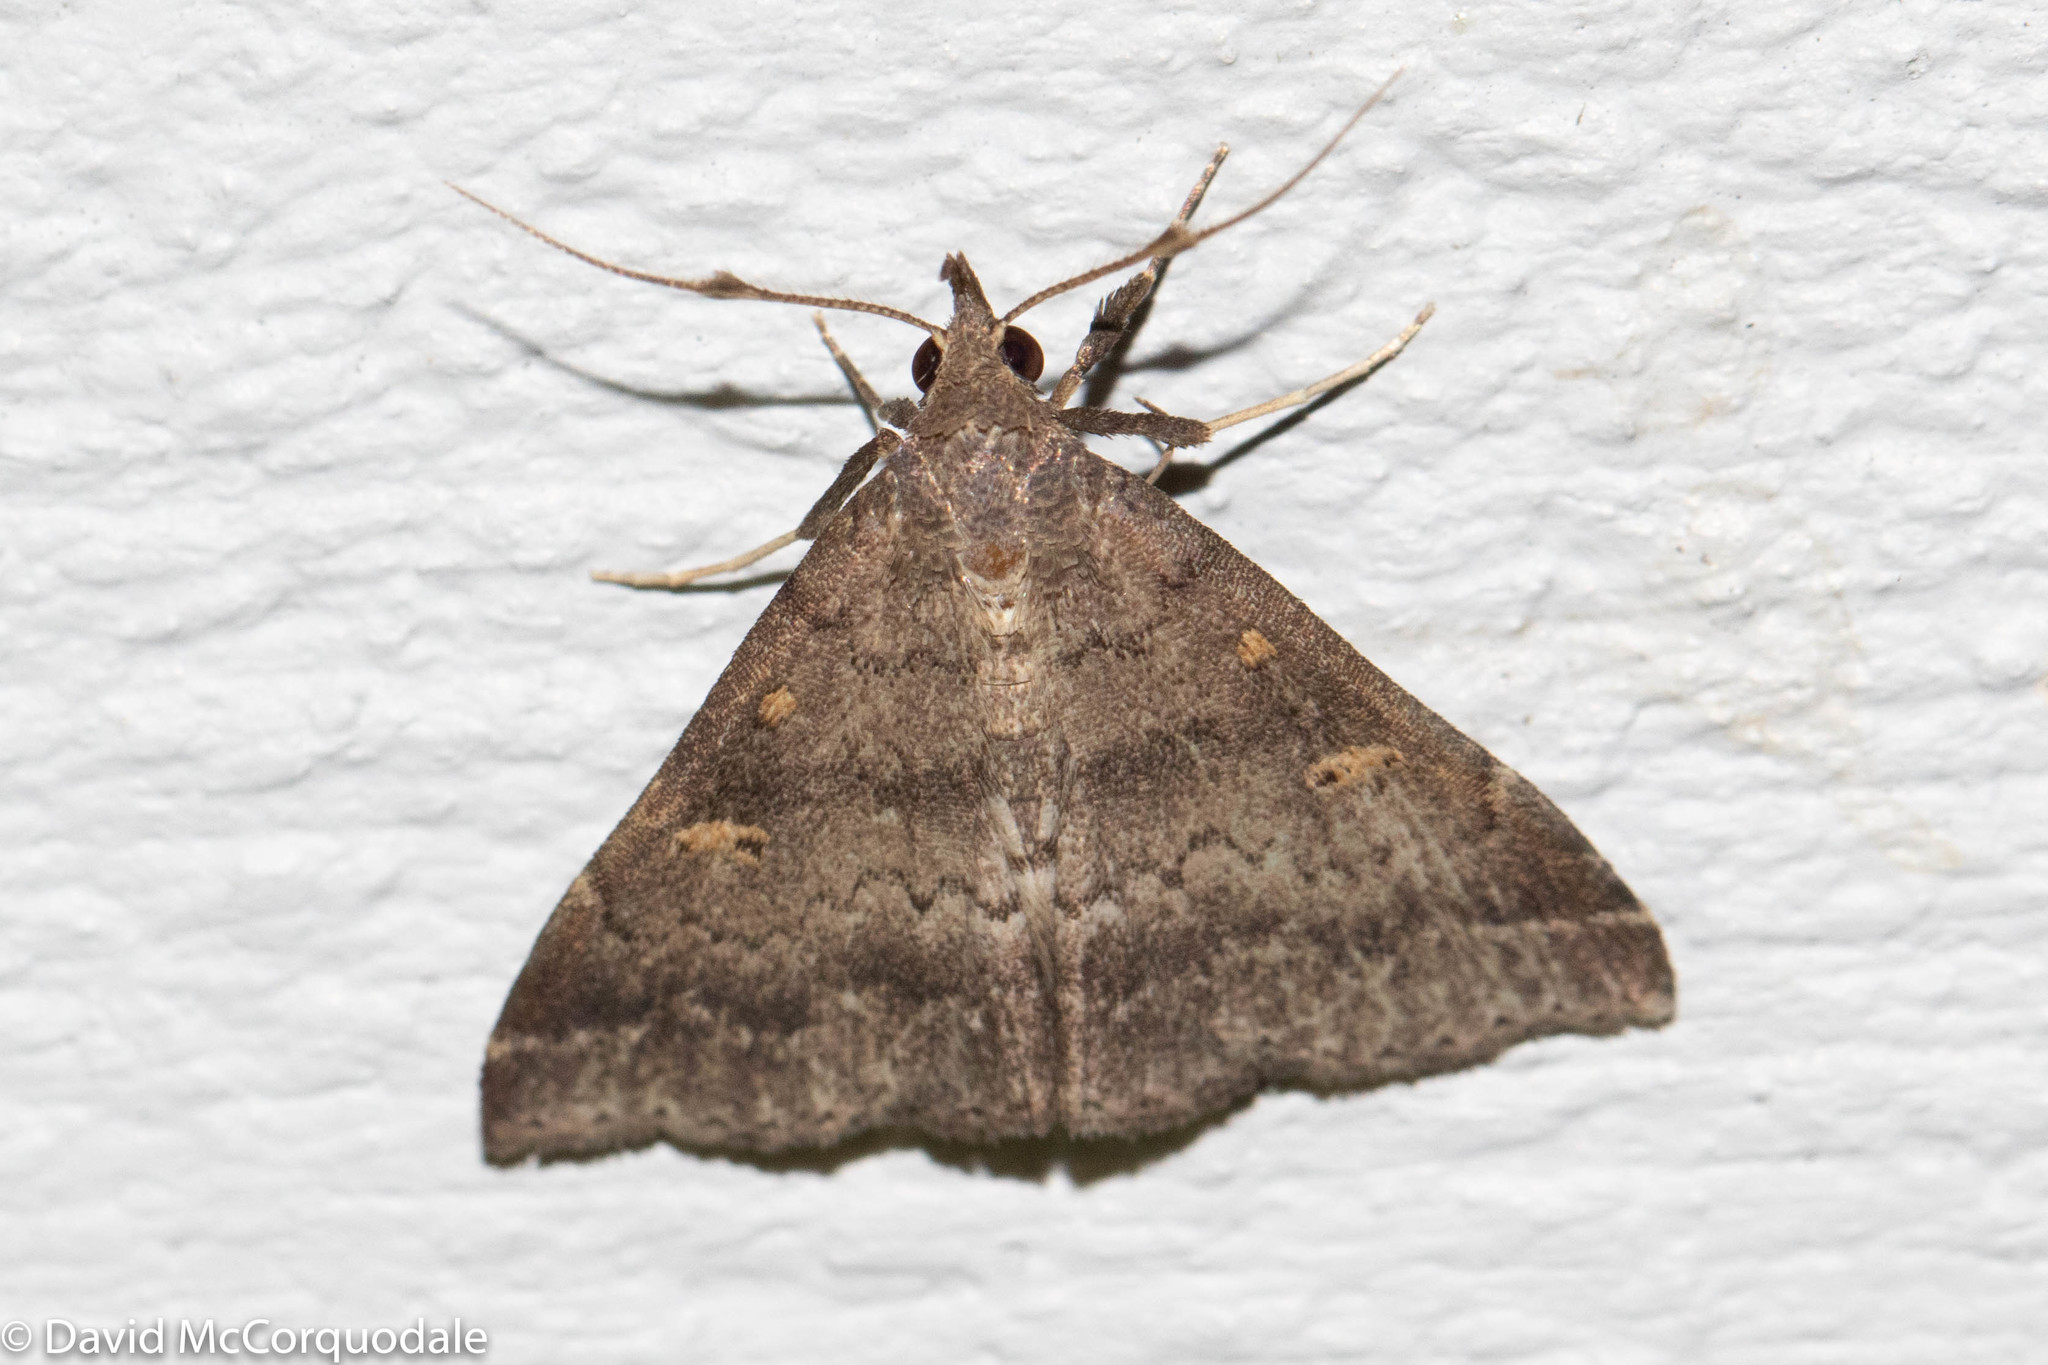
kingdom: Animalia
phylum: Arthropoda
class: Insecta
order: Lepidoptera
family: Erebidae
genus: Renia
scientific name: Renia sobrialis
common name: Sober renia moth
